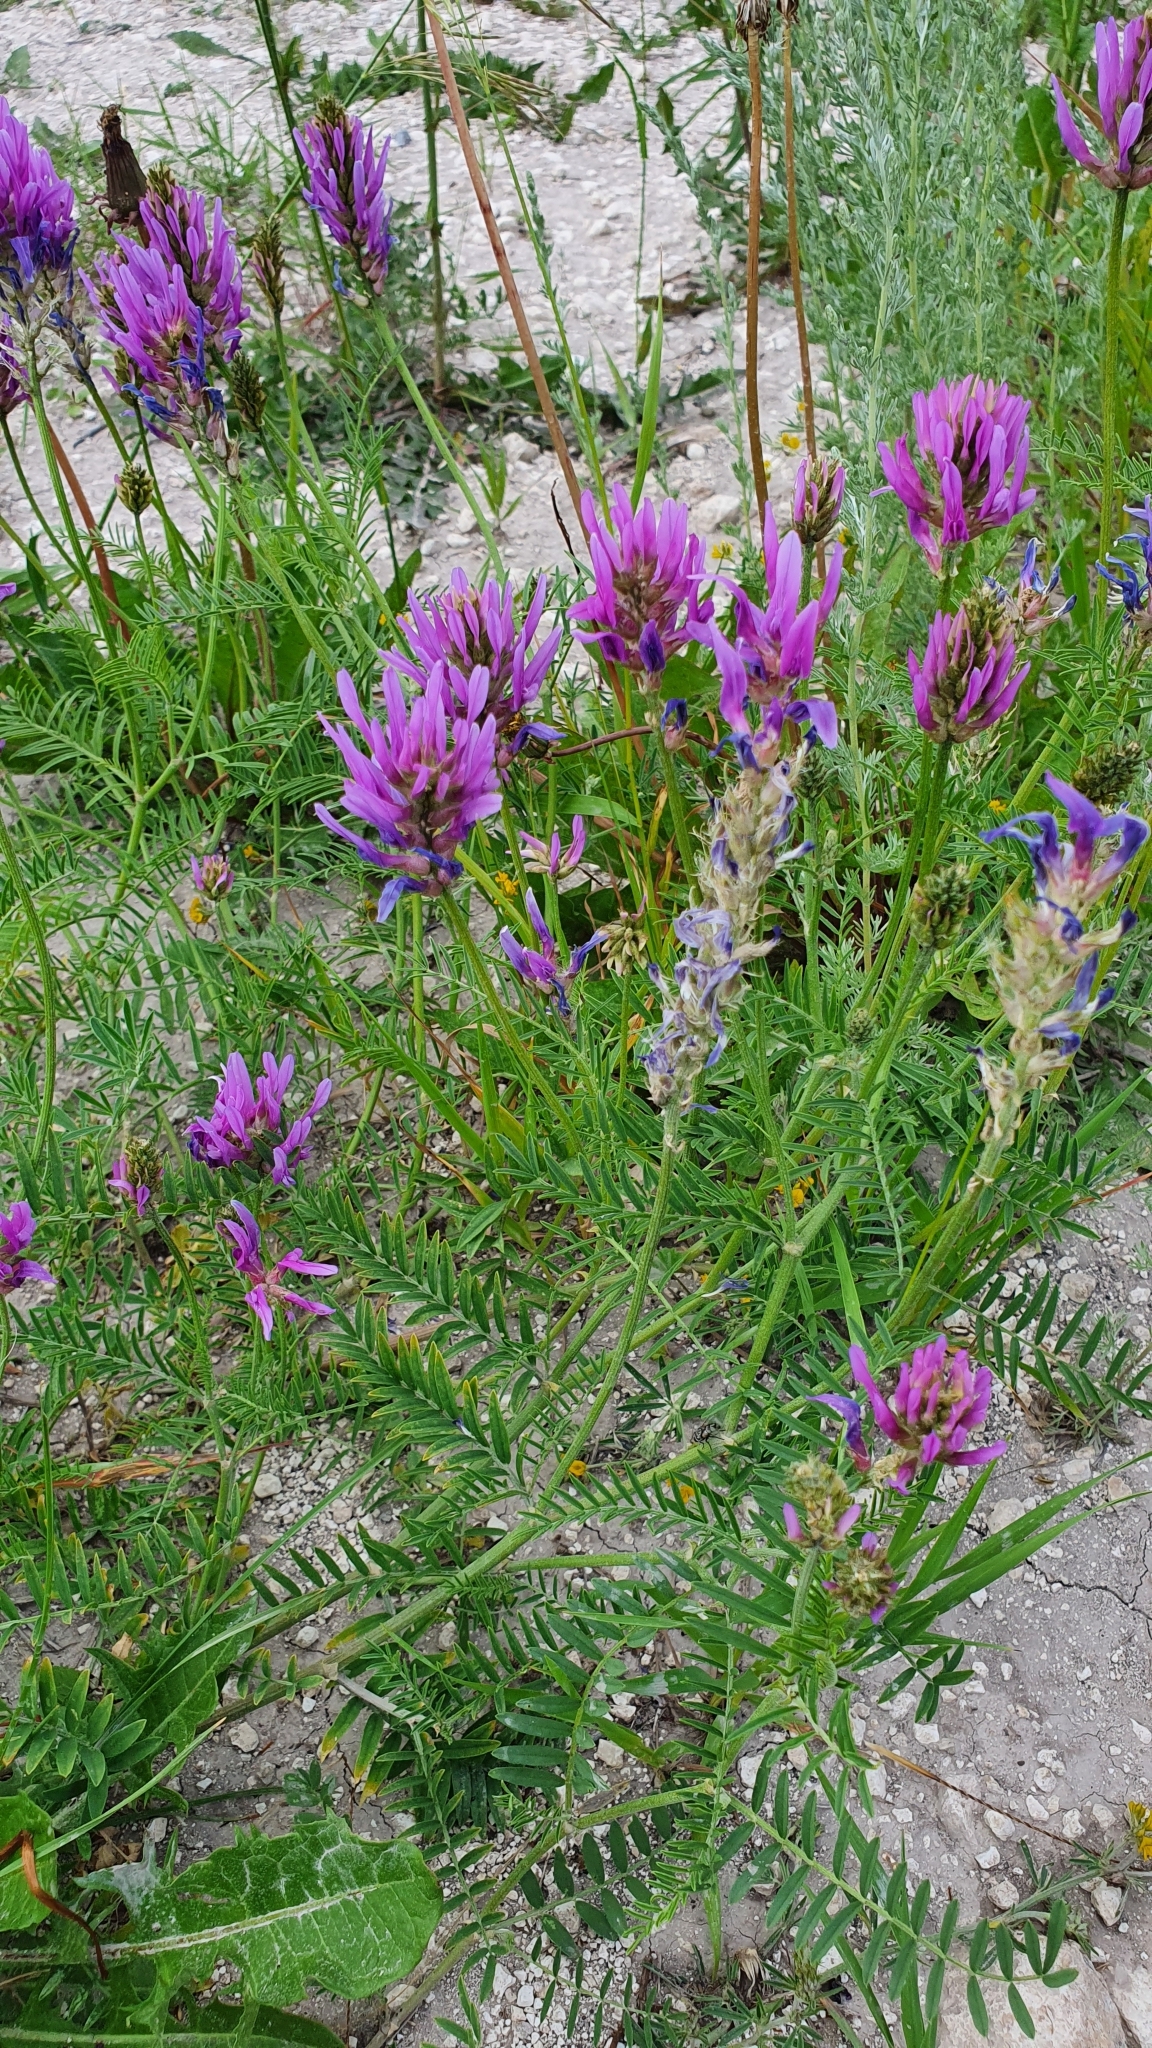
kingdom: Plantae
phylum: Tracheophyta
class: Magnoliopsida
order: Fabales
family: Fabaceae
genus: Astragalus
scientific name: Astragalus onobrychis
